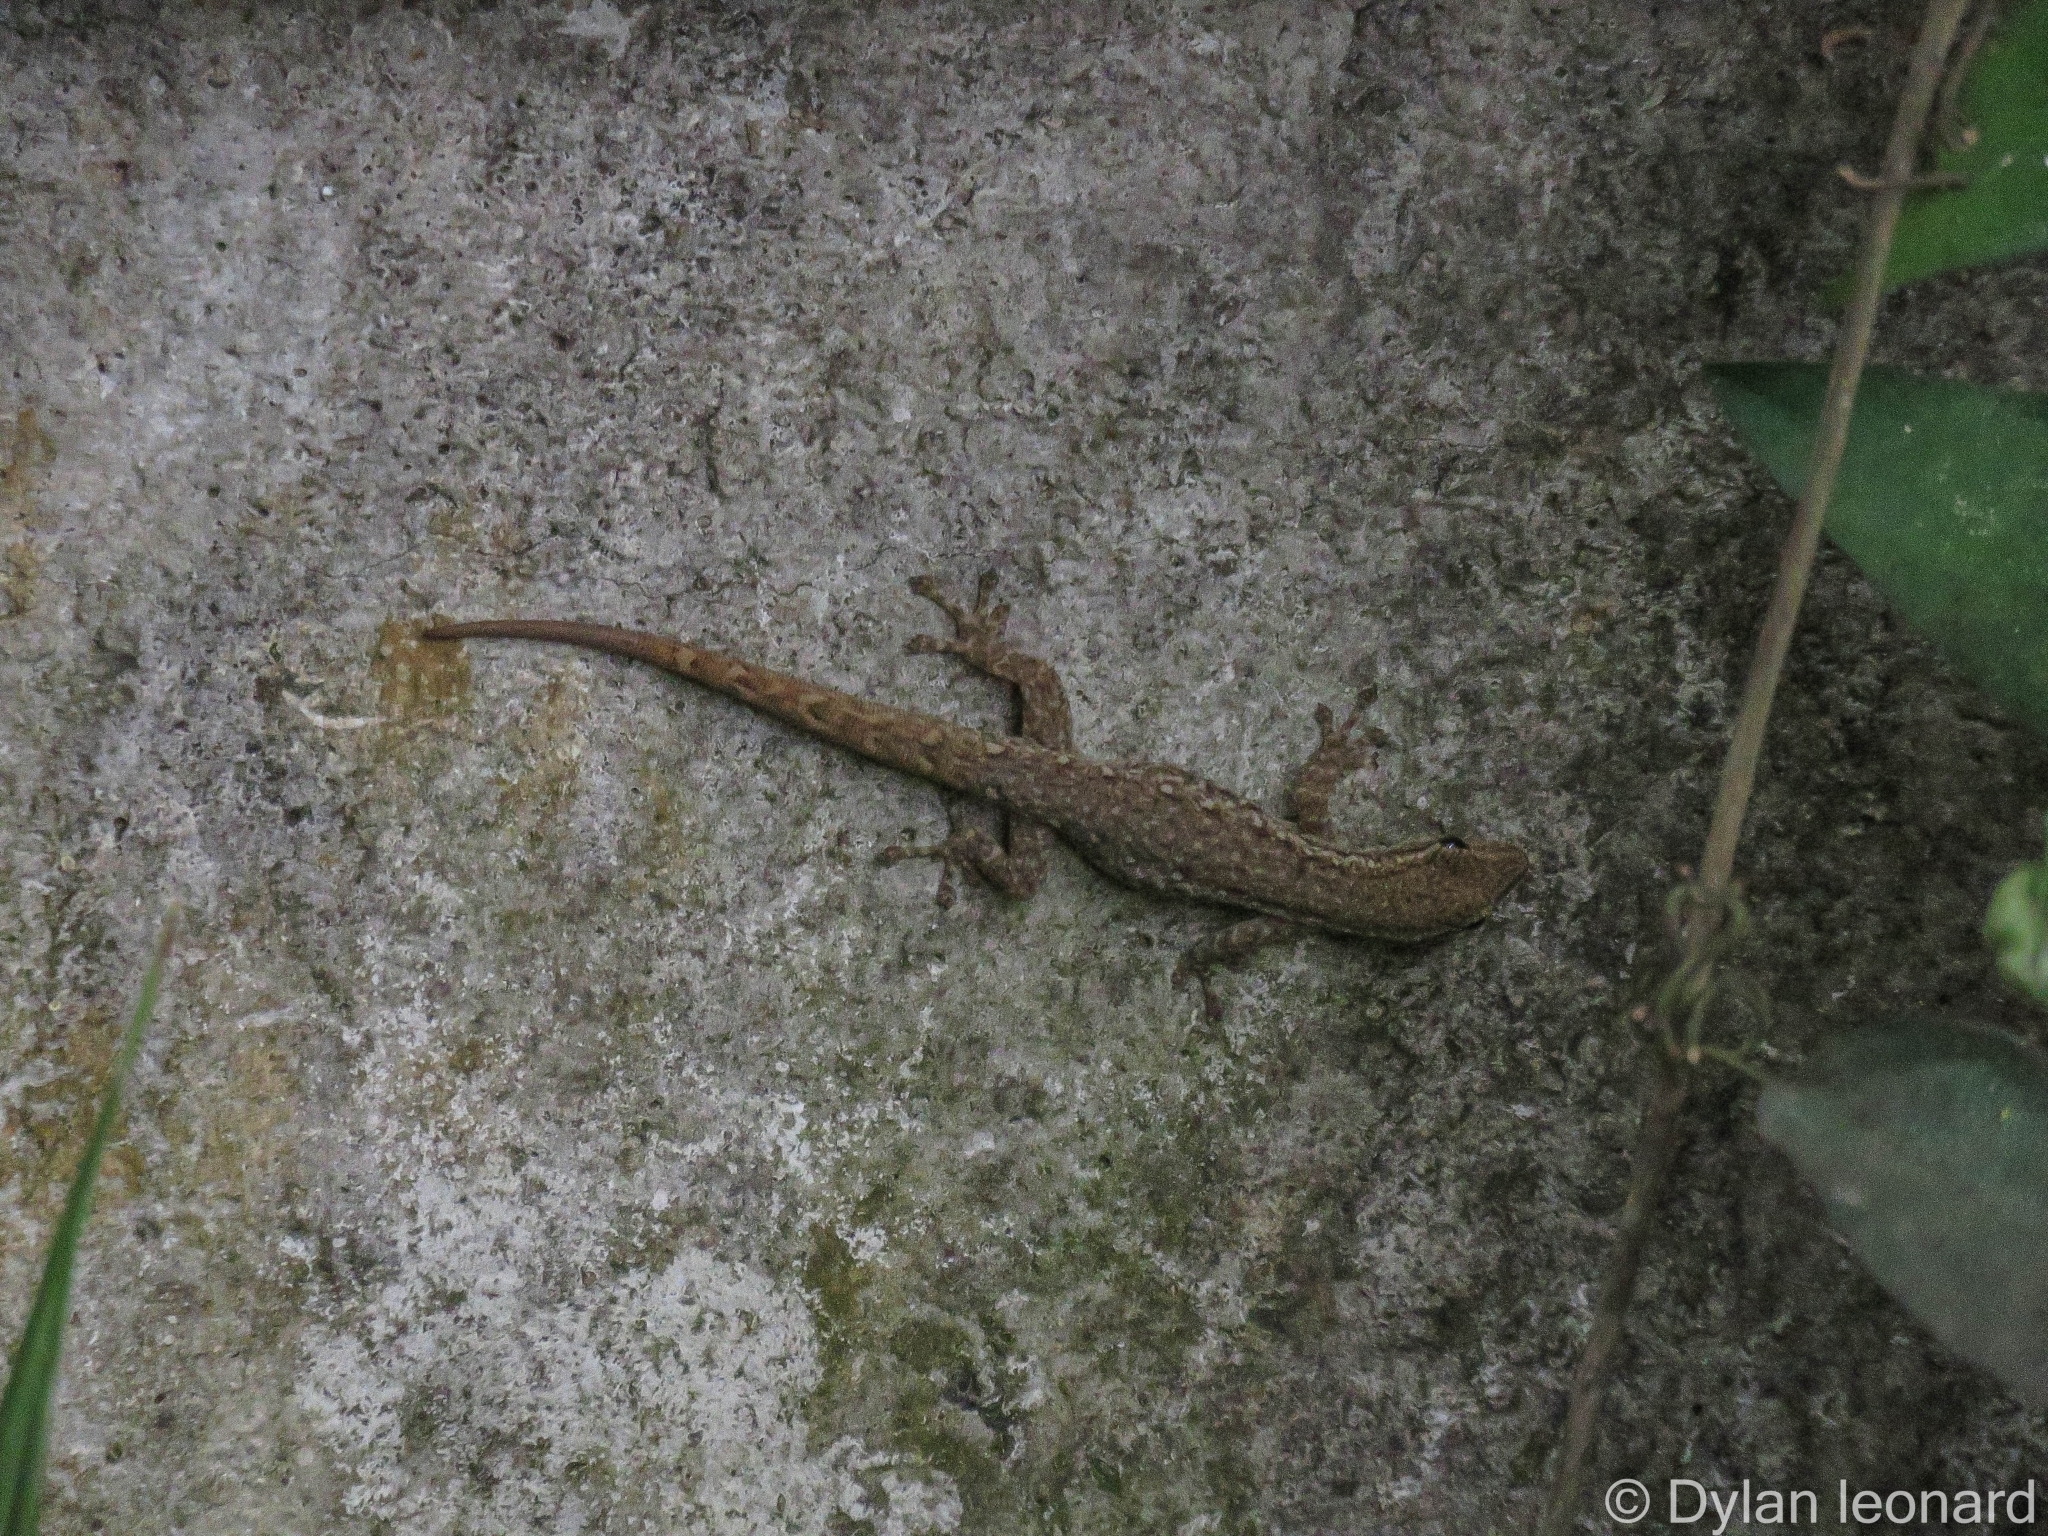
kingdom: Animalia
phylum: Chordata
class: Squamata
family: Gekkonidae
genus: Lygodactylus
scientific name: Lygodactylus capensis
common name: Cape dwarf gecko
